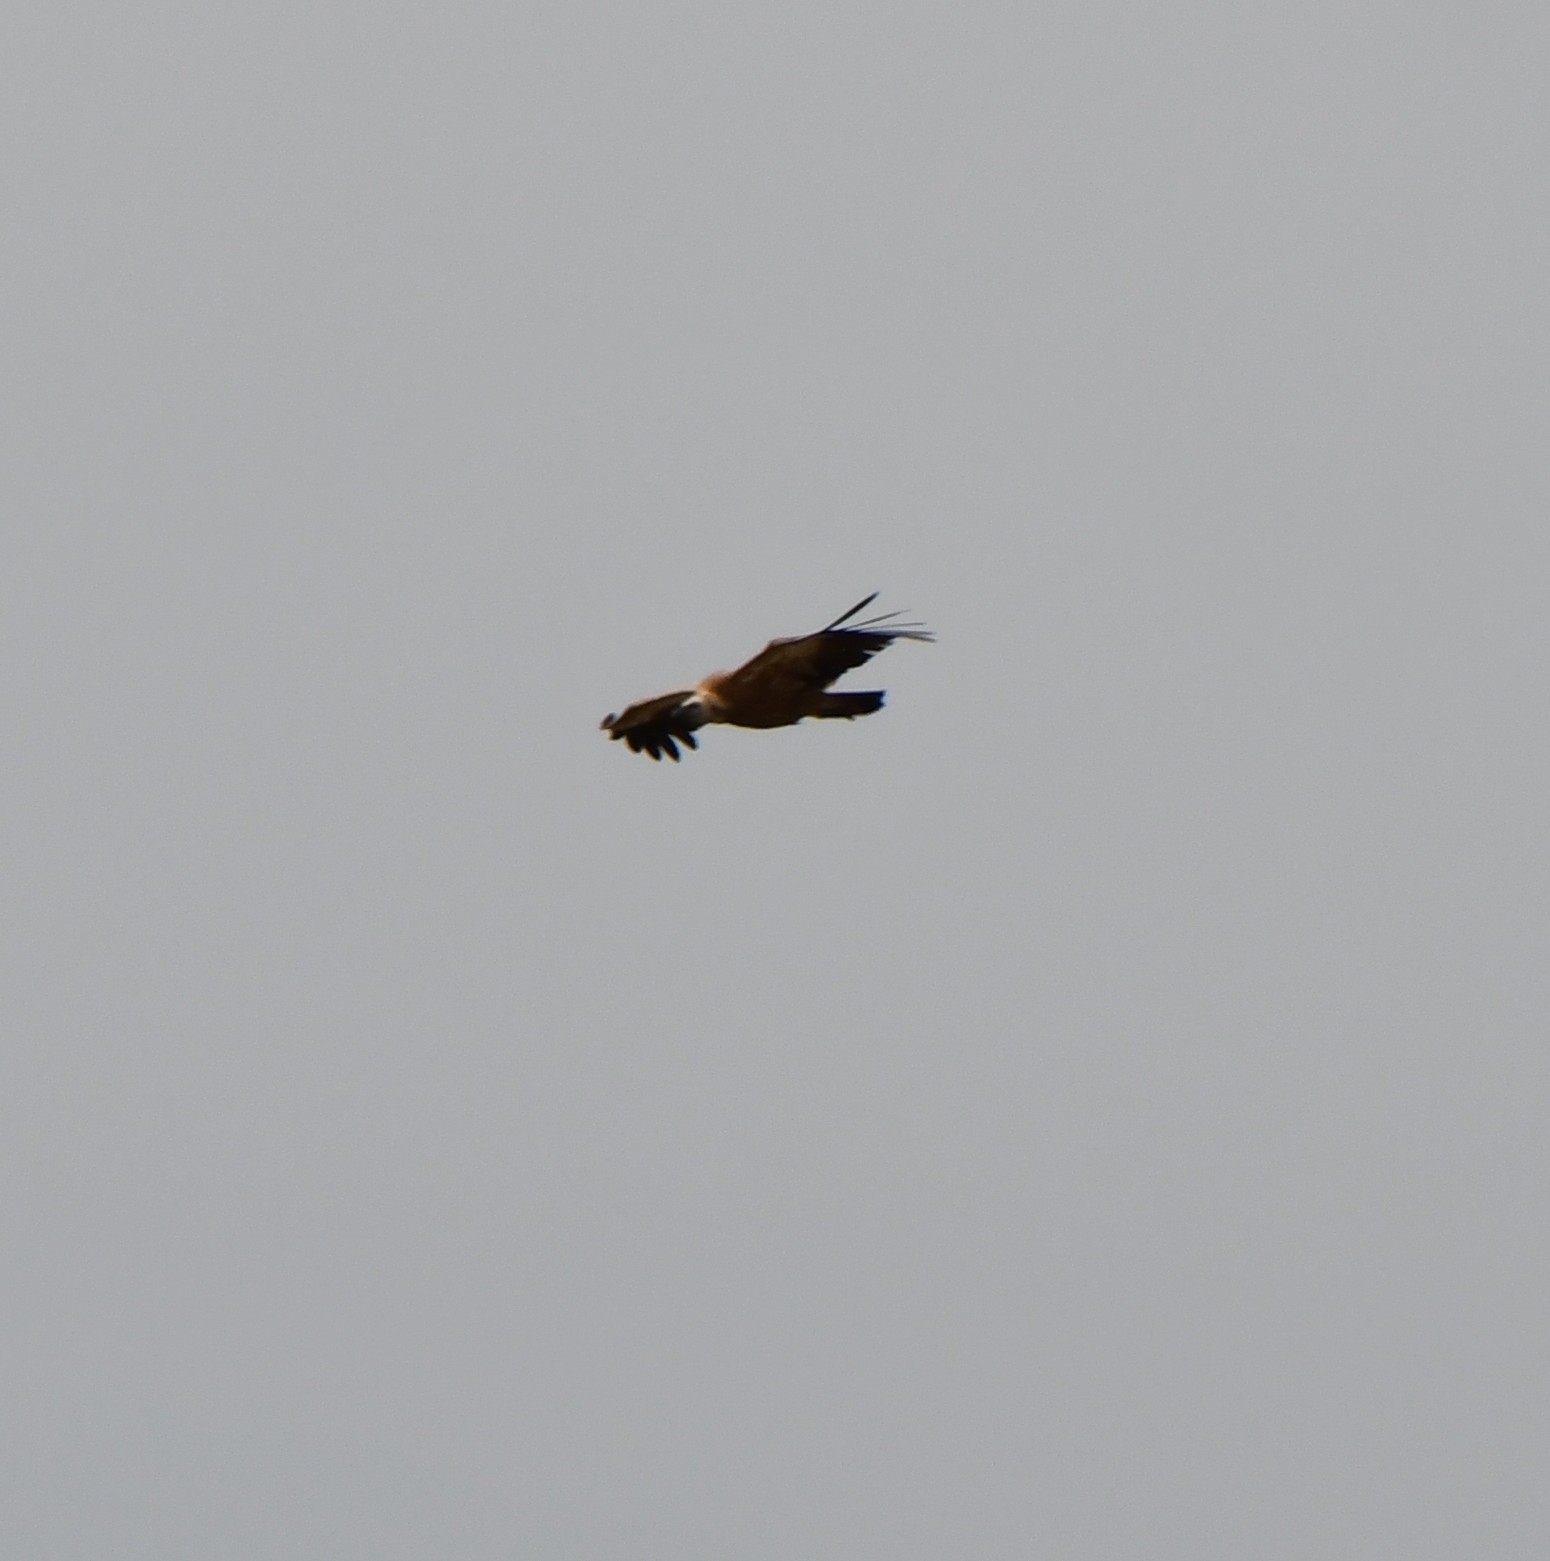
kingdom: Animalia
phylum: Chordata
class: Aves
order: Accipitriformes
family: Accipitridae
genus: Gyps
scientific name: Gyps fulvus
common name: Griffon vulture
